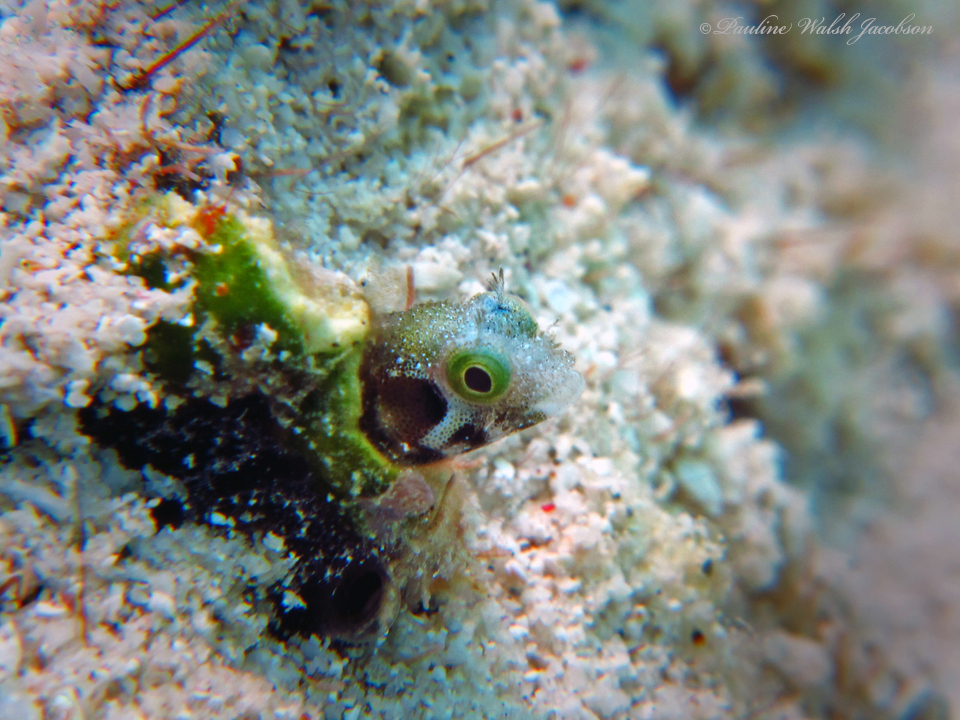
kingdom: Animalia
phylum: Chordata
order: Perciformes
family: Chaenopsidae
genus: Acanthemblemaria
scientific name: Acanthemblemaria spinosa
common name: Spinyhead blenny
